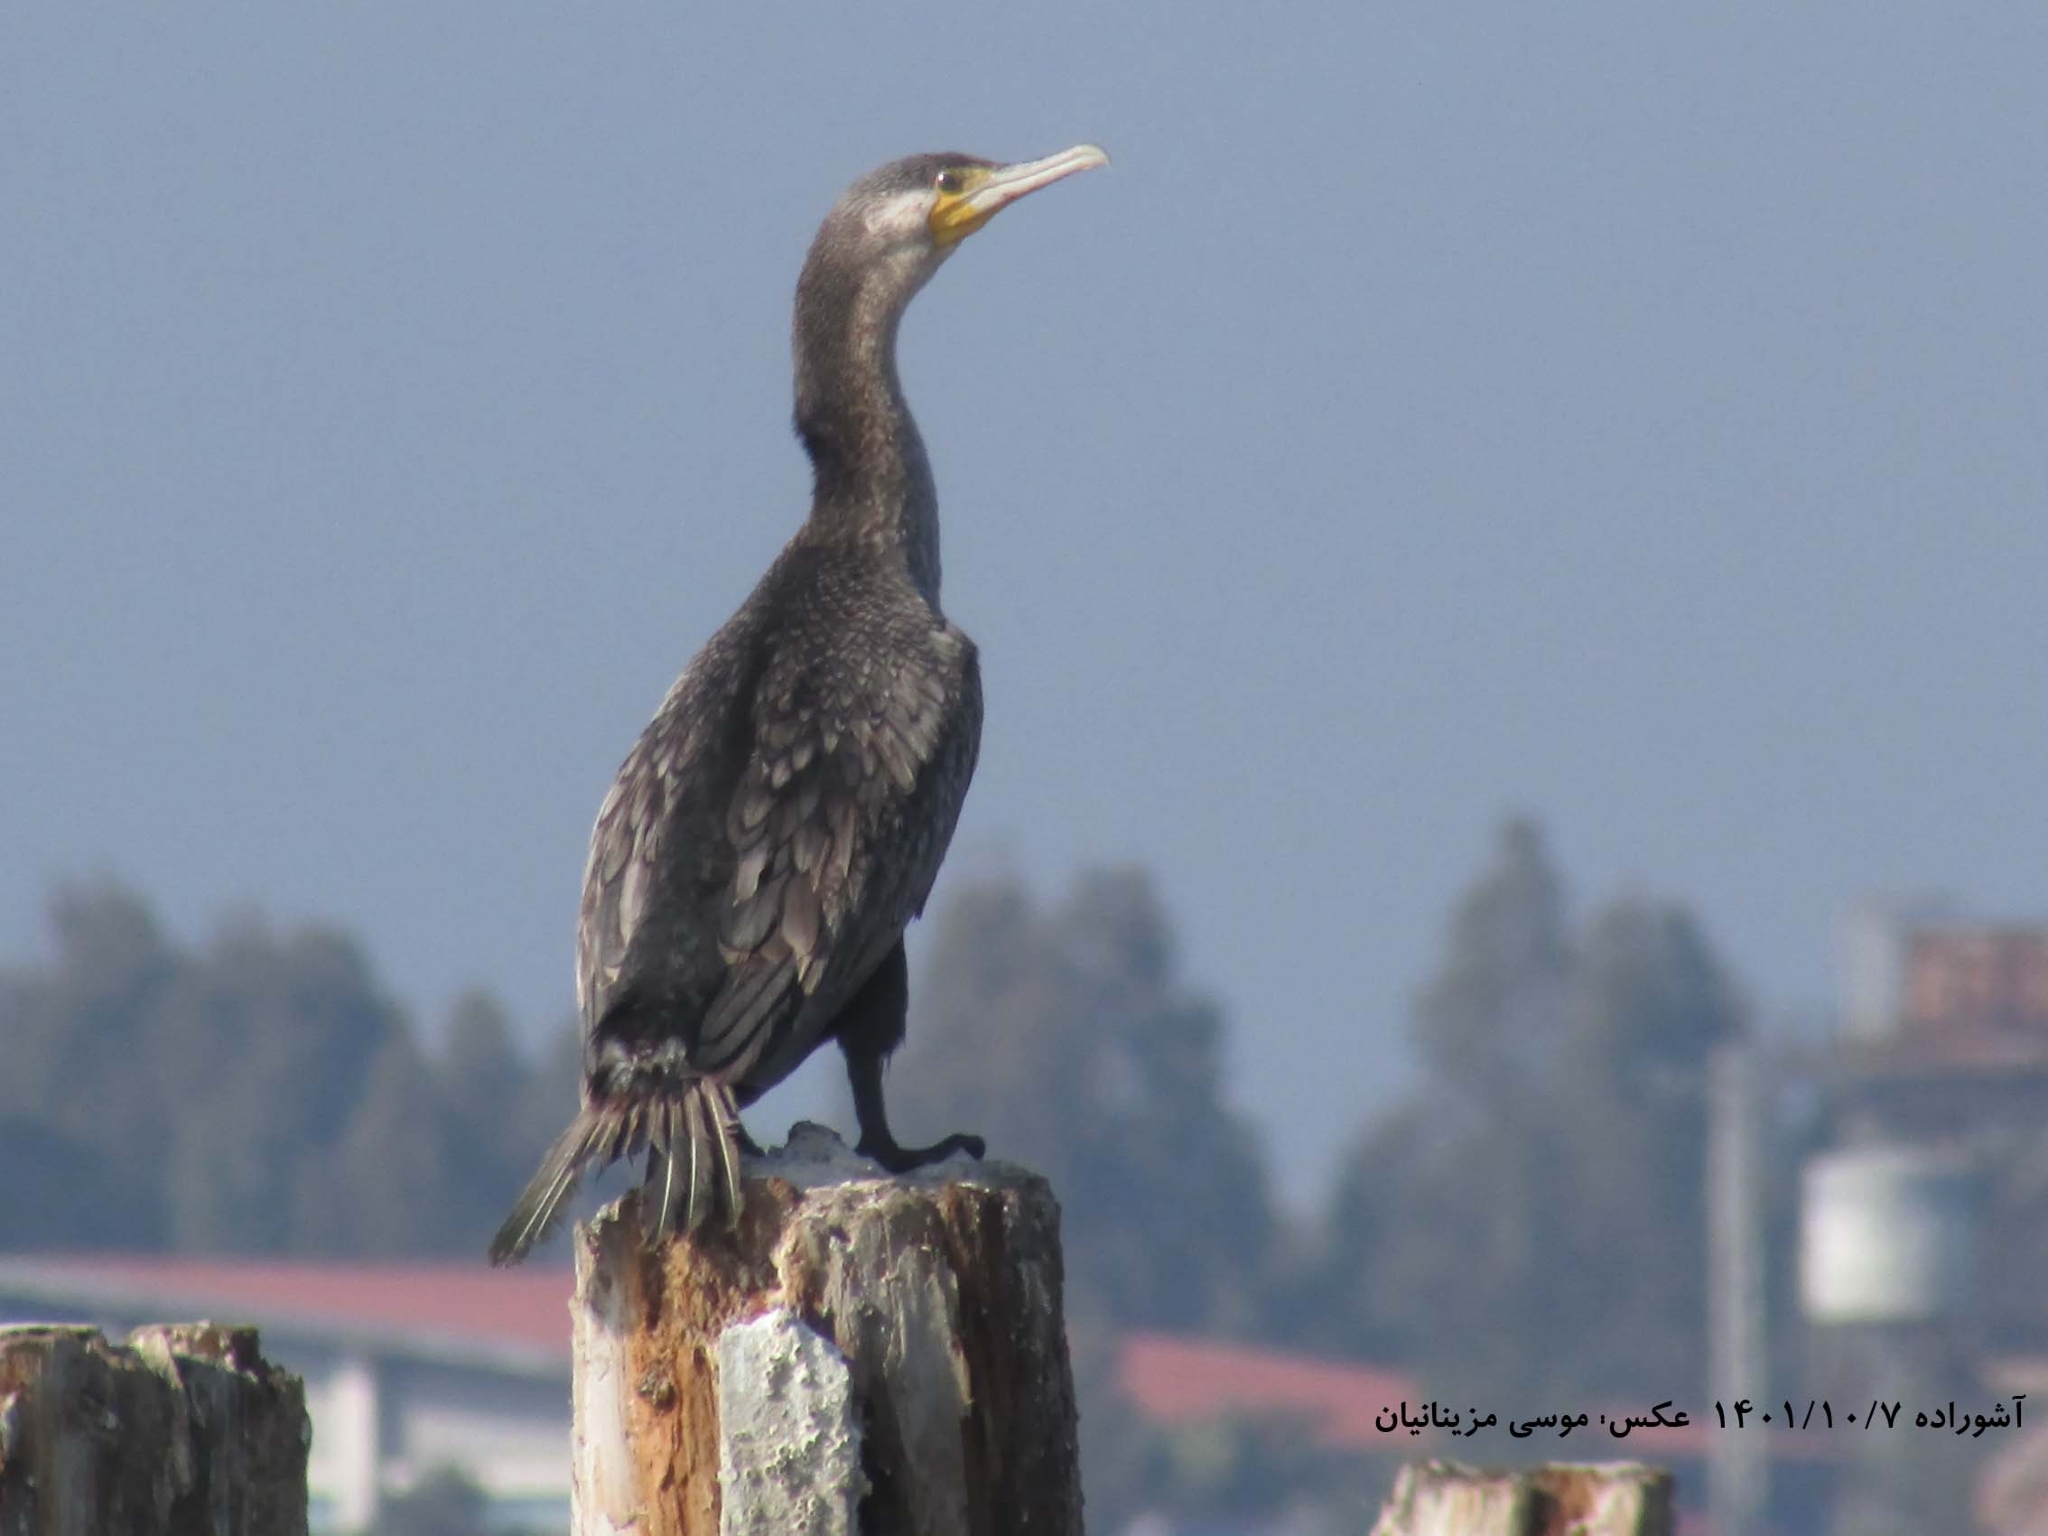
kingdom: Animalia
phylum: Chordata
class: Aves
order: Suliformes
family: Phalacrocoracidae
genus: Phalacrocorax
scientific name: Phalacrocorax carbo
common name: Great cormorant
